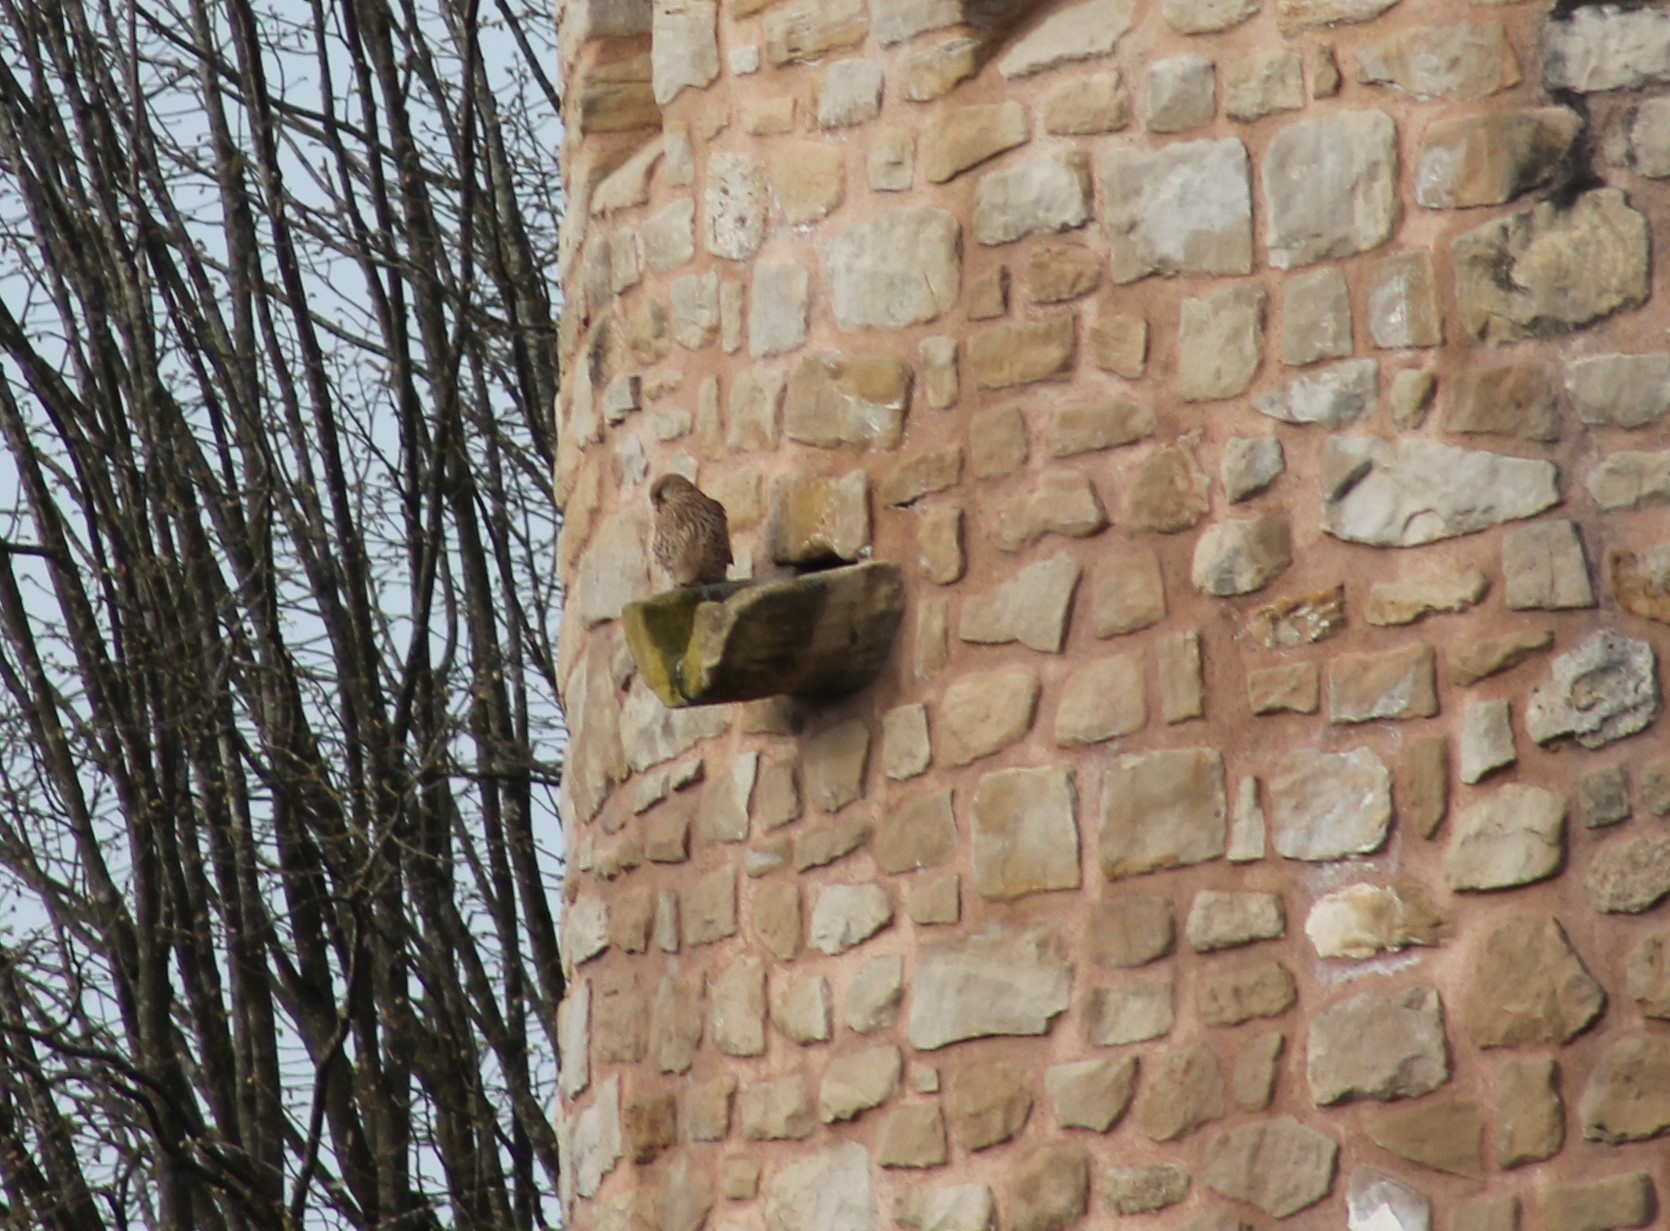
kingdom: Animalia
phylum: Chordata
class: Aves
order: Falconiformes
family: Falconidae
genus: Falco
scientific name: Falco tinnunculus
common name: Common kestrel
